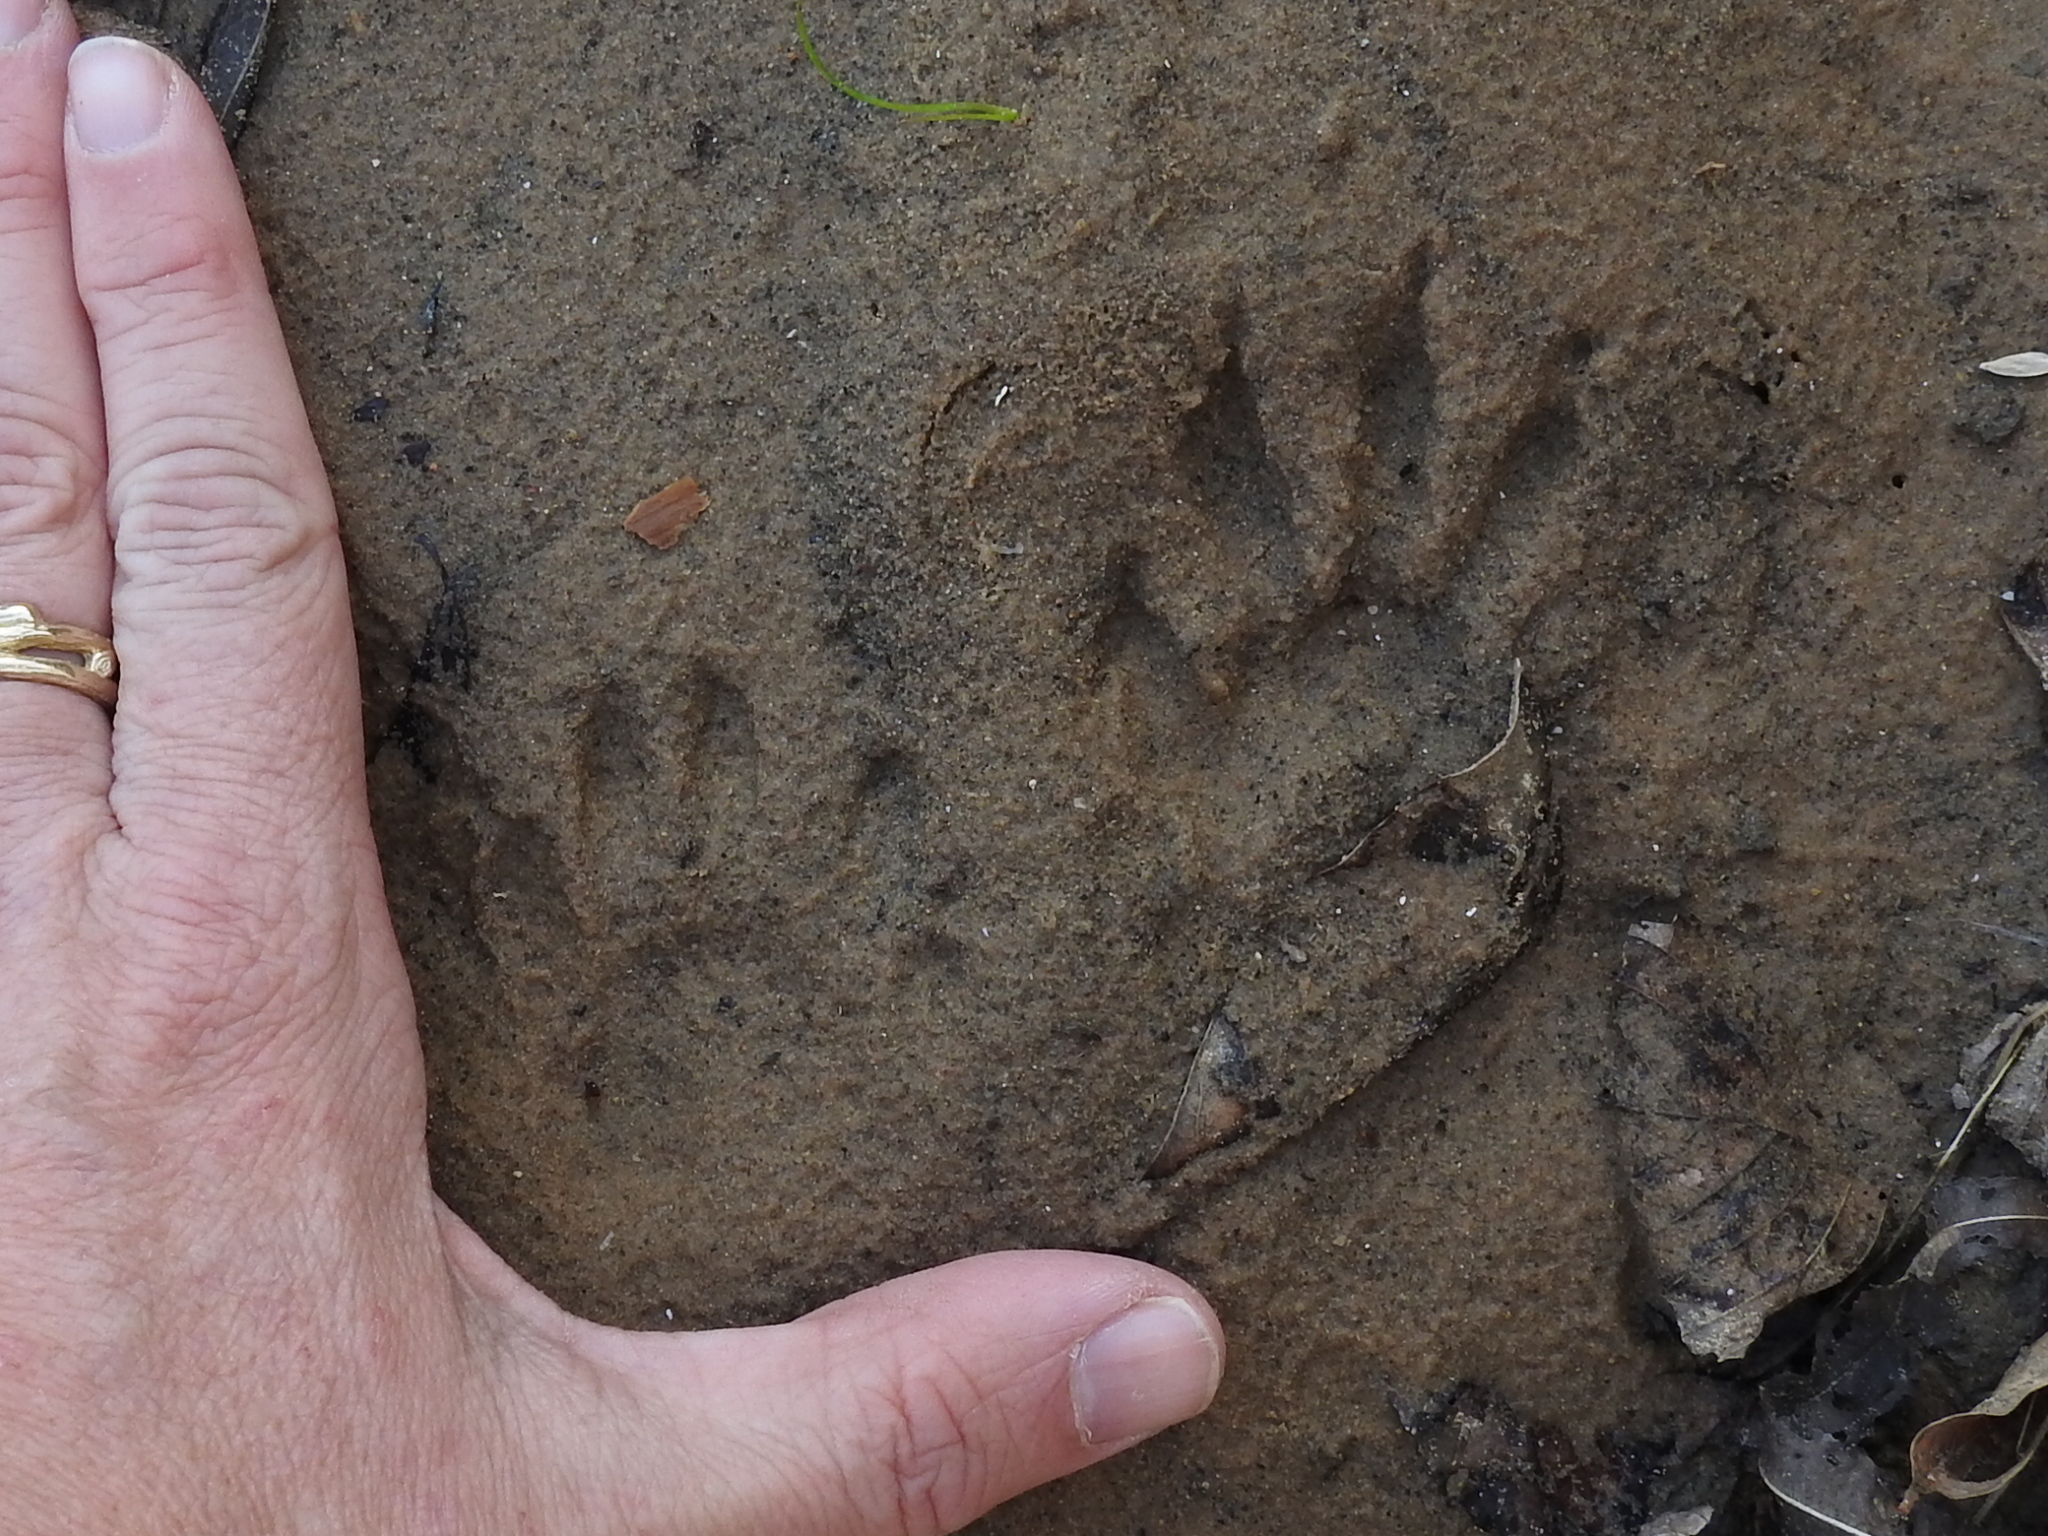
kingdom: Animalia
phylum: Chordata
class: Mammalia
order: Carnivora
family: Procyonidae
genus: Procyon
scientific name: Procyon lotor
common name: Raccoon
